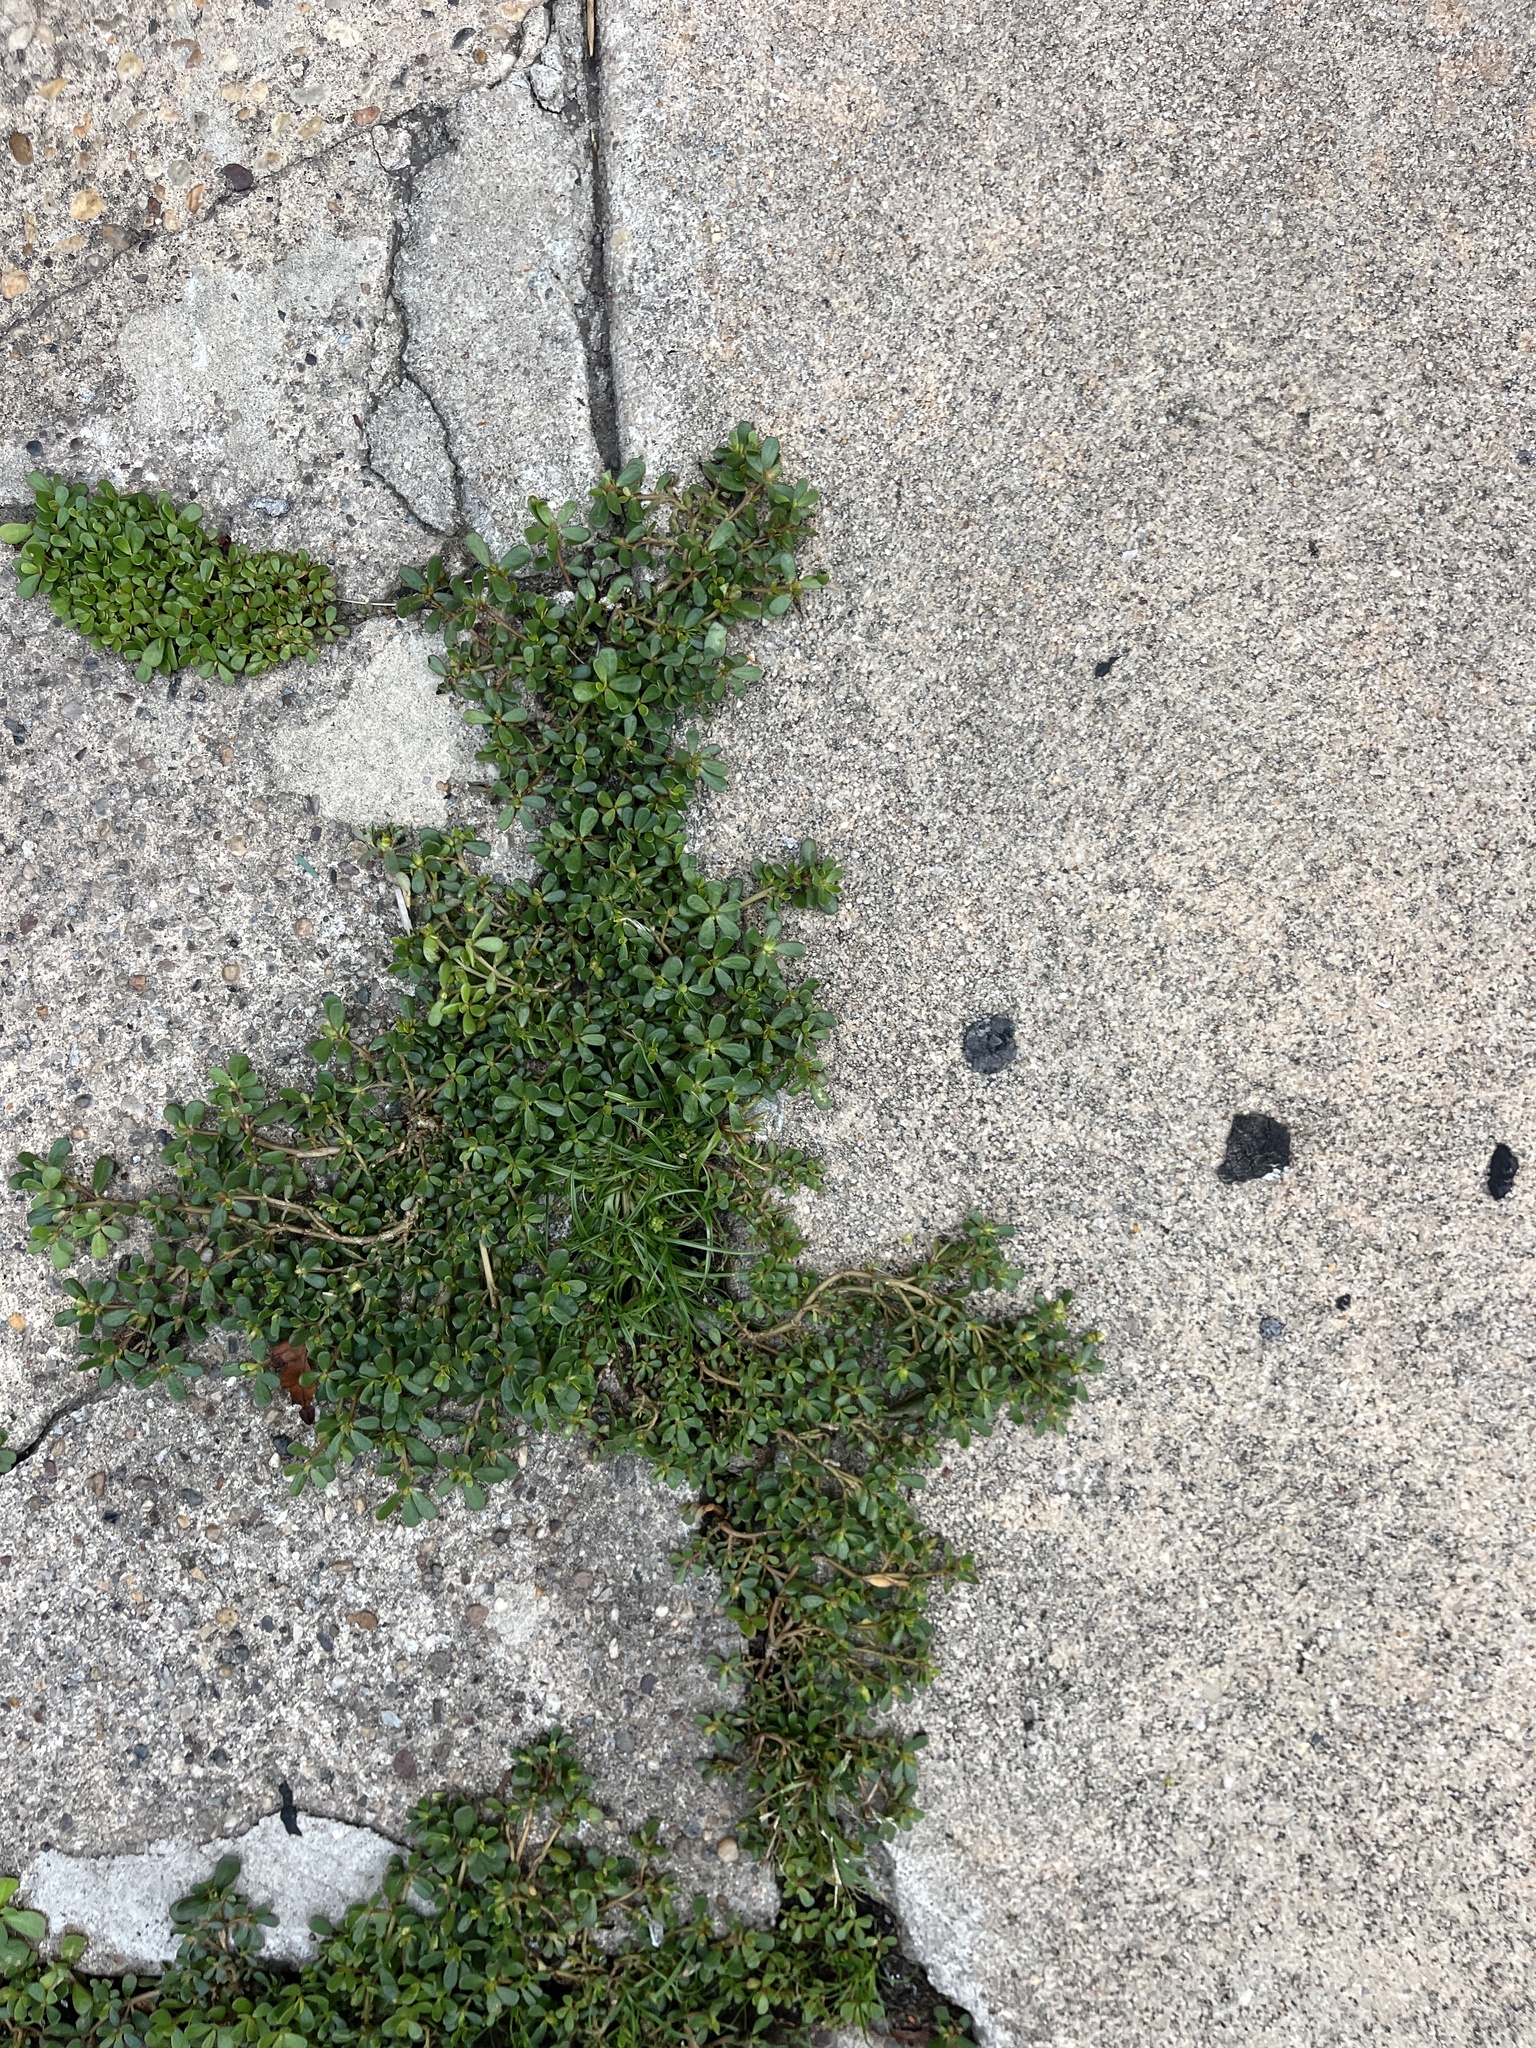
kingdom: Plantae
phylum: Tracheophyta
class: Magnoliopsida
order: Caryophyllales
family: Portulacaceae
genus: Portulaca
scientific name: Portulaca oleracea
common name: Common purslane
